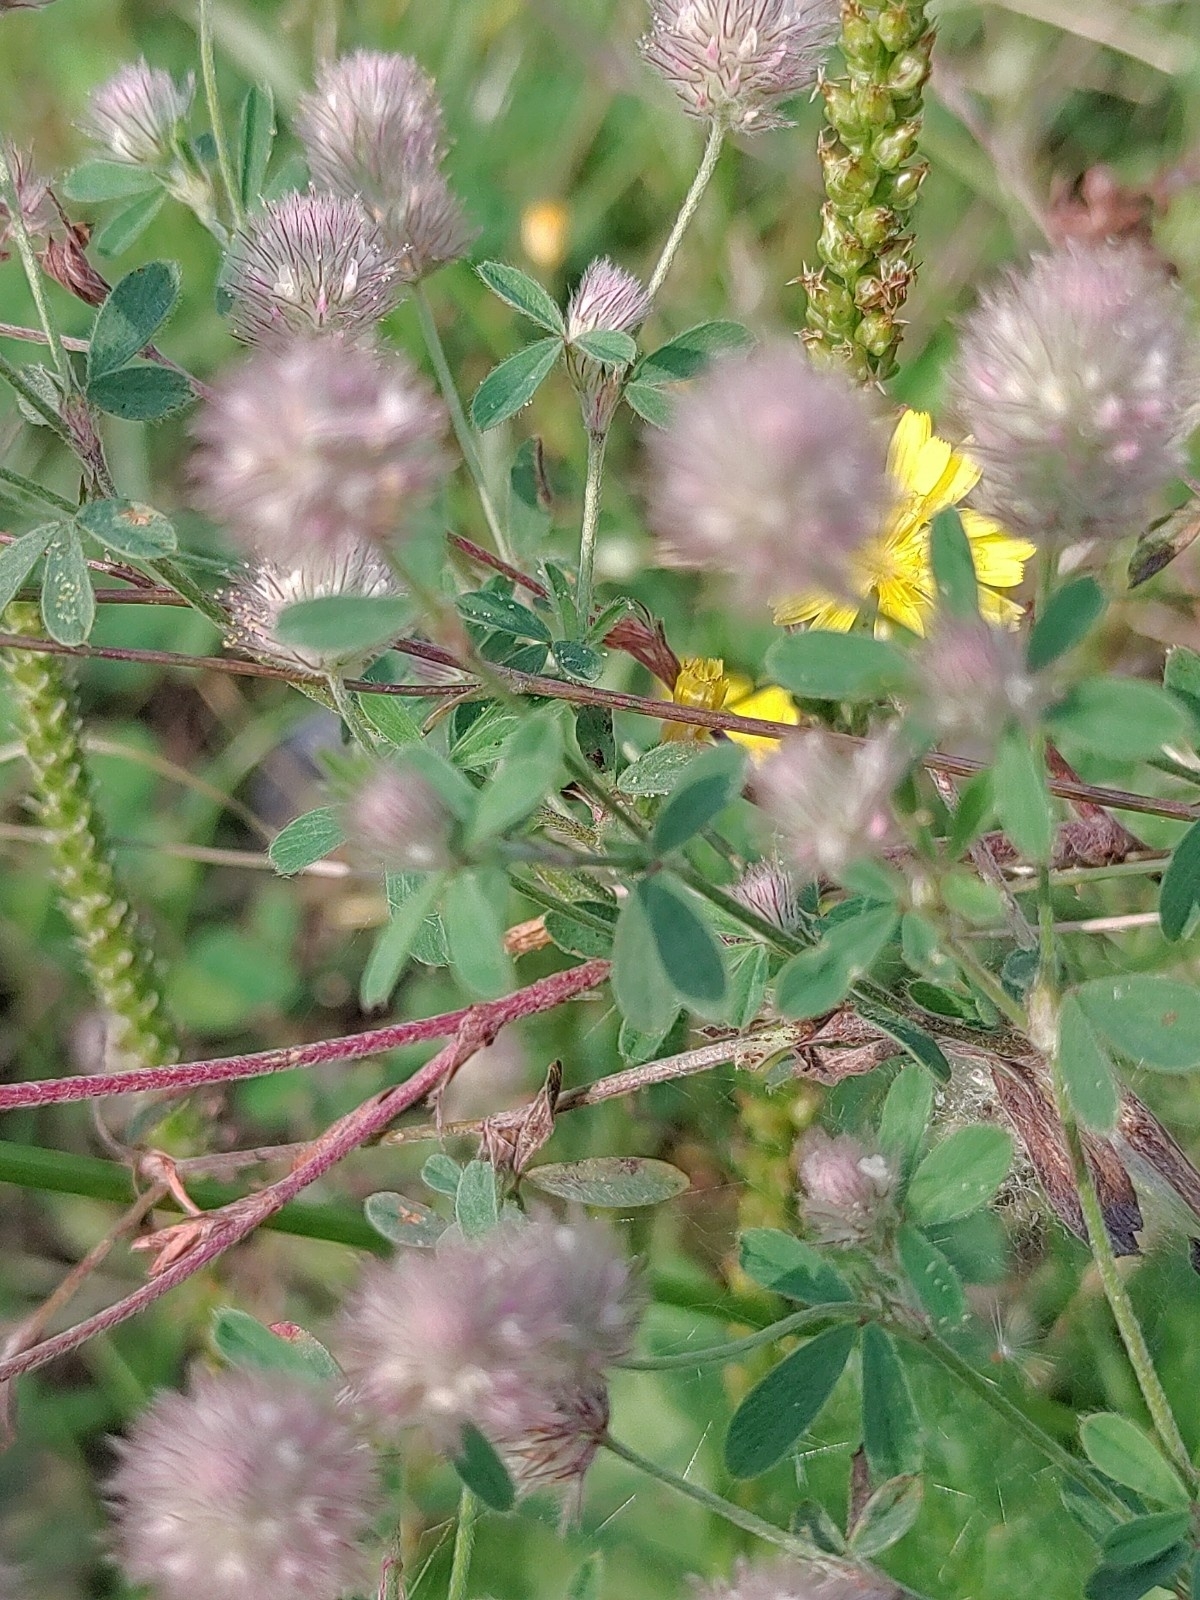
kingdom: Plantae
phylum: Tracheophyta
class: Magnoliopsida
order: Fabales
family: Fabaceae
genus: Trifolium
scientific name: Trifolium arvense
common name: Hare's-foot clover
